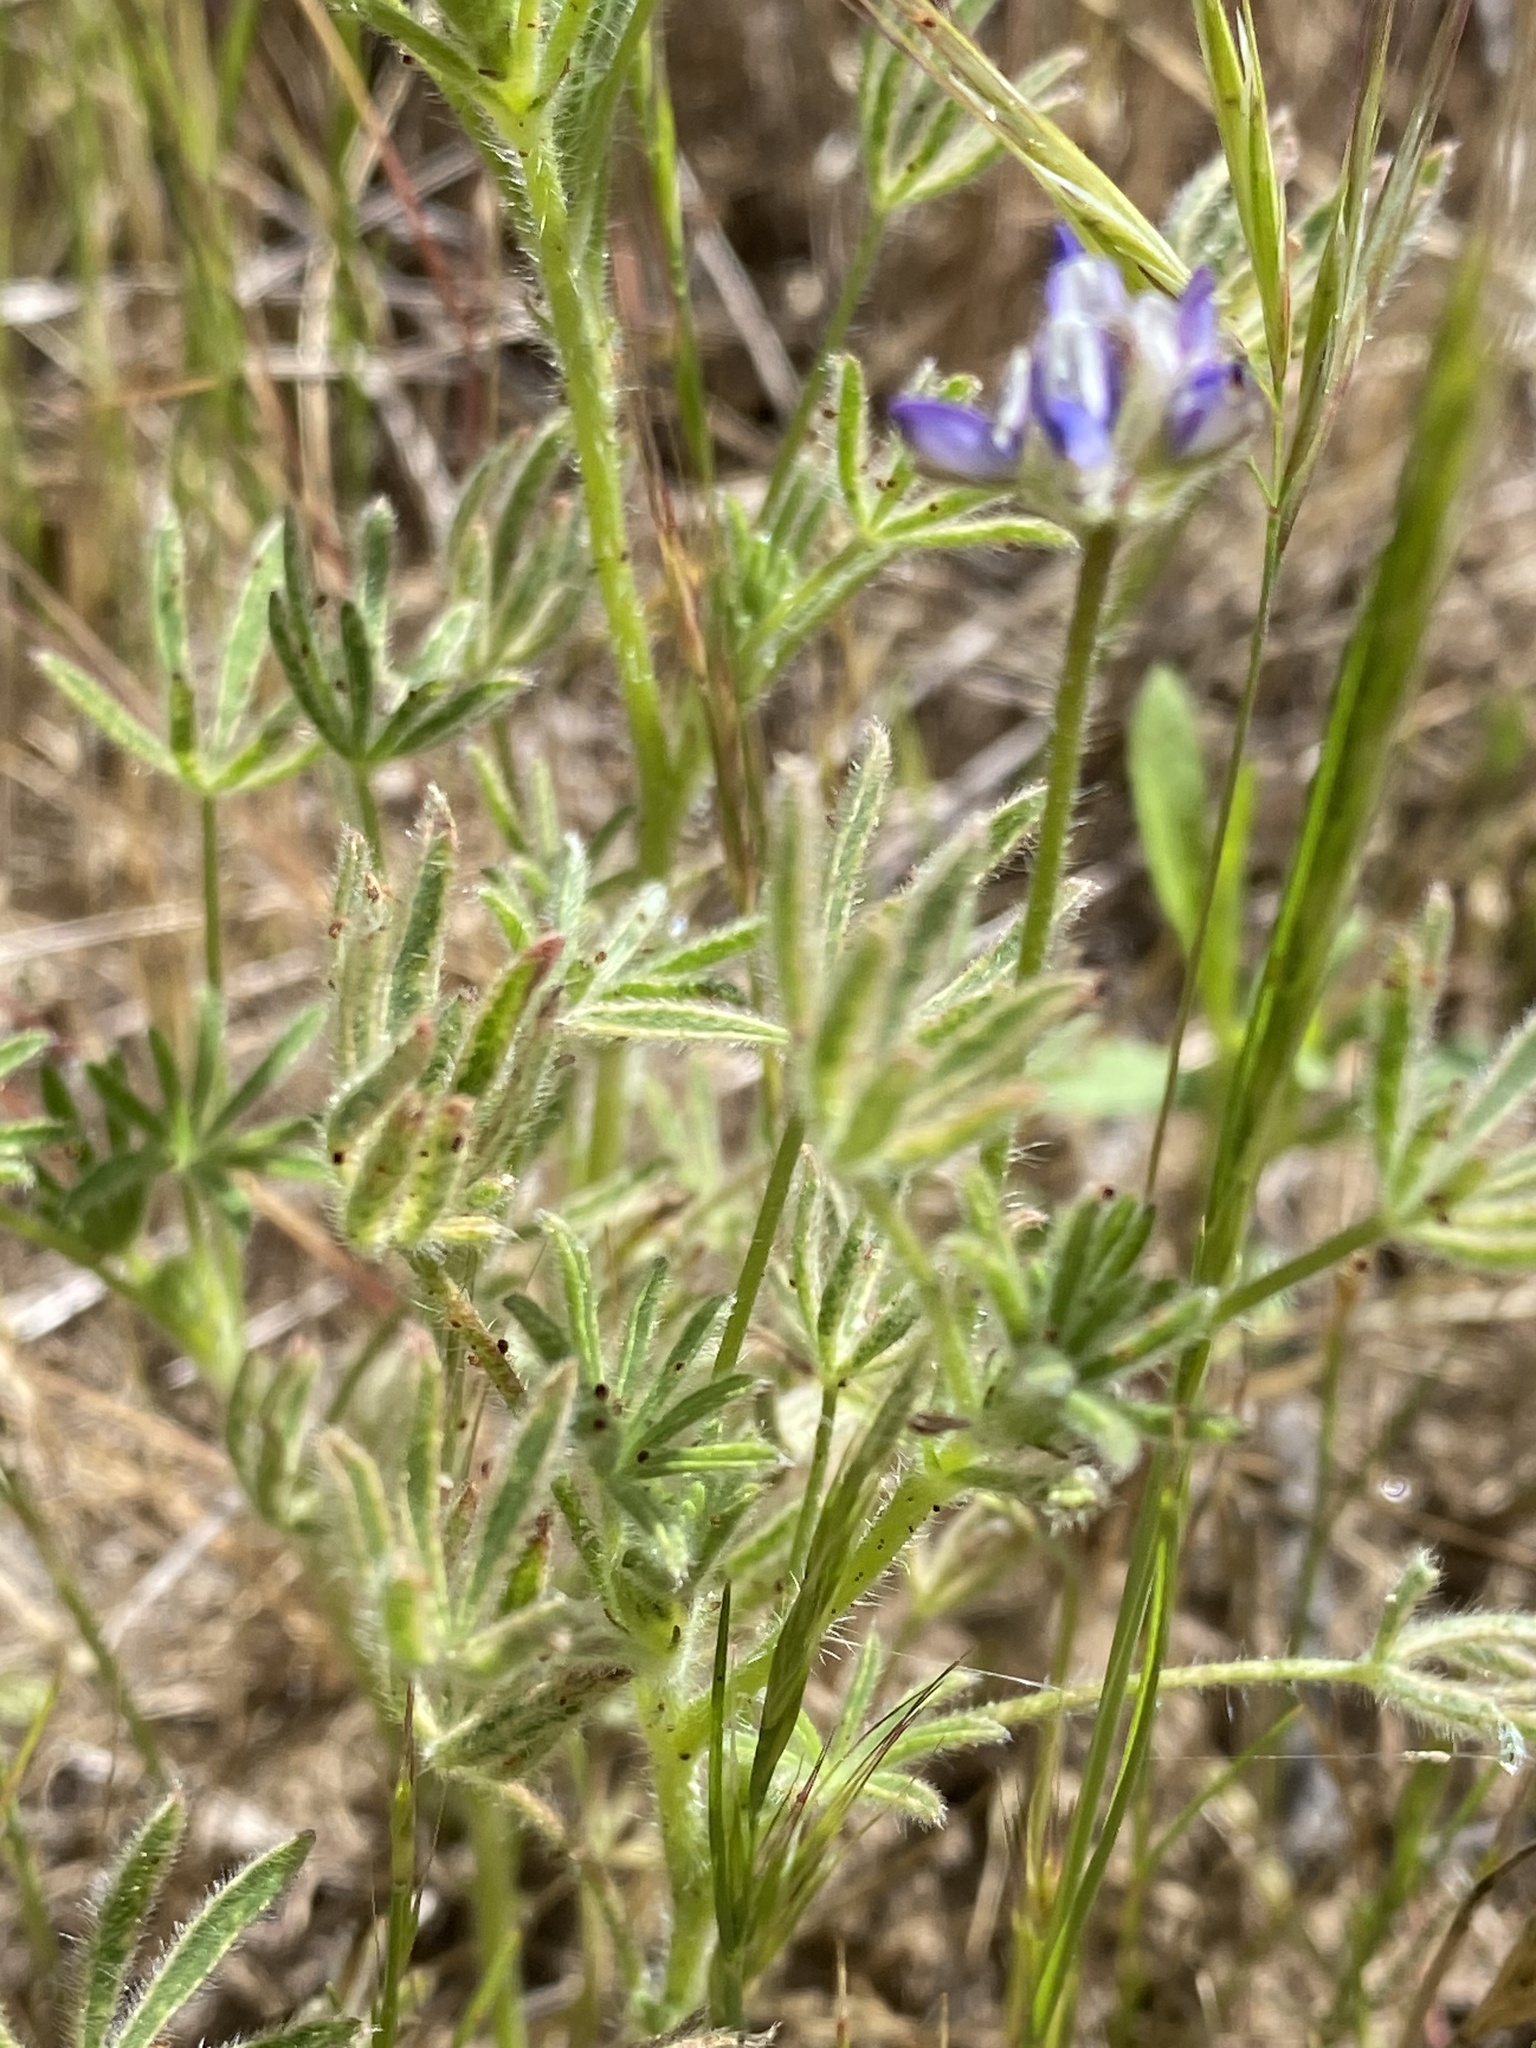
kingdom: Plantae
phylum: Tracheophyta
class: Magnoliopsida
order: Fabales
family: Fabaceae
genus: Lupinus
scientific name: Lupinus bicolor
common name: Miniature lupine
